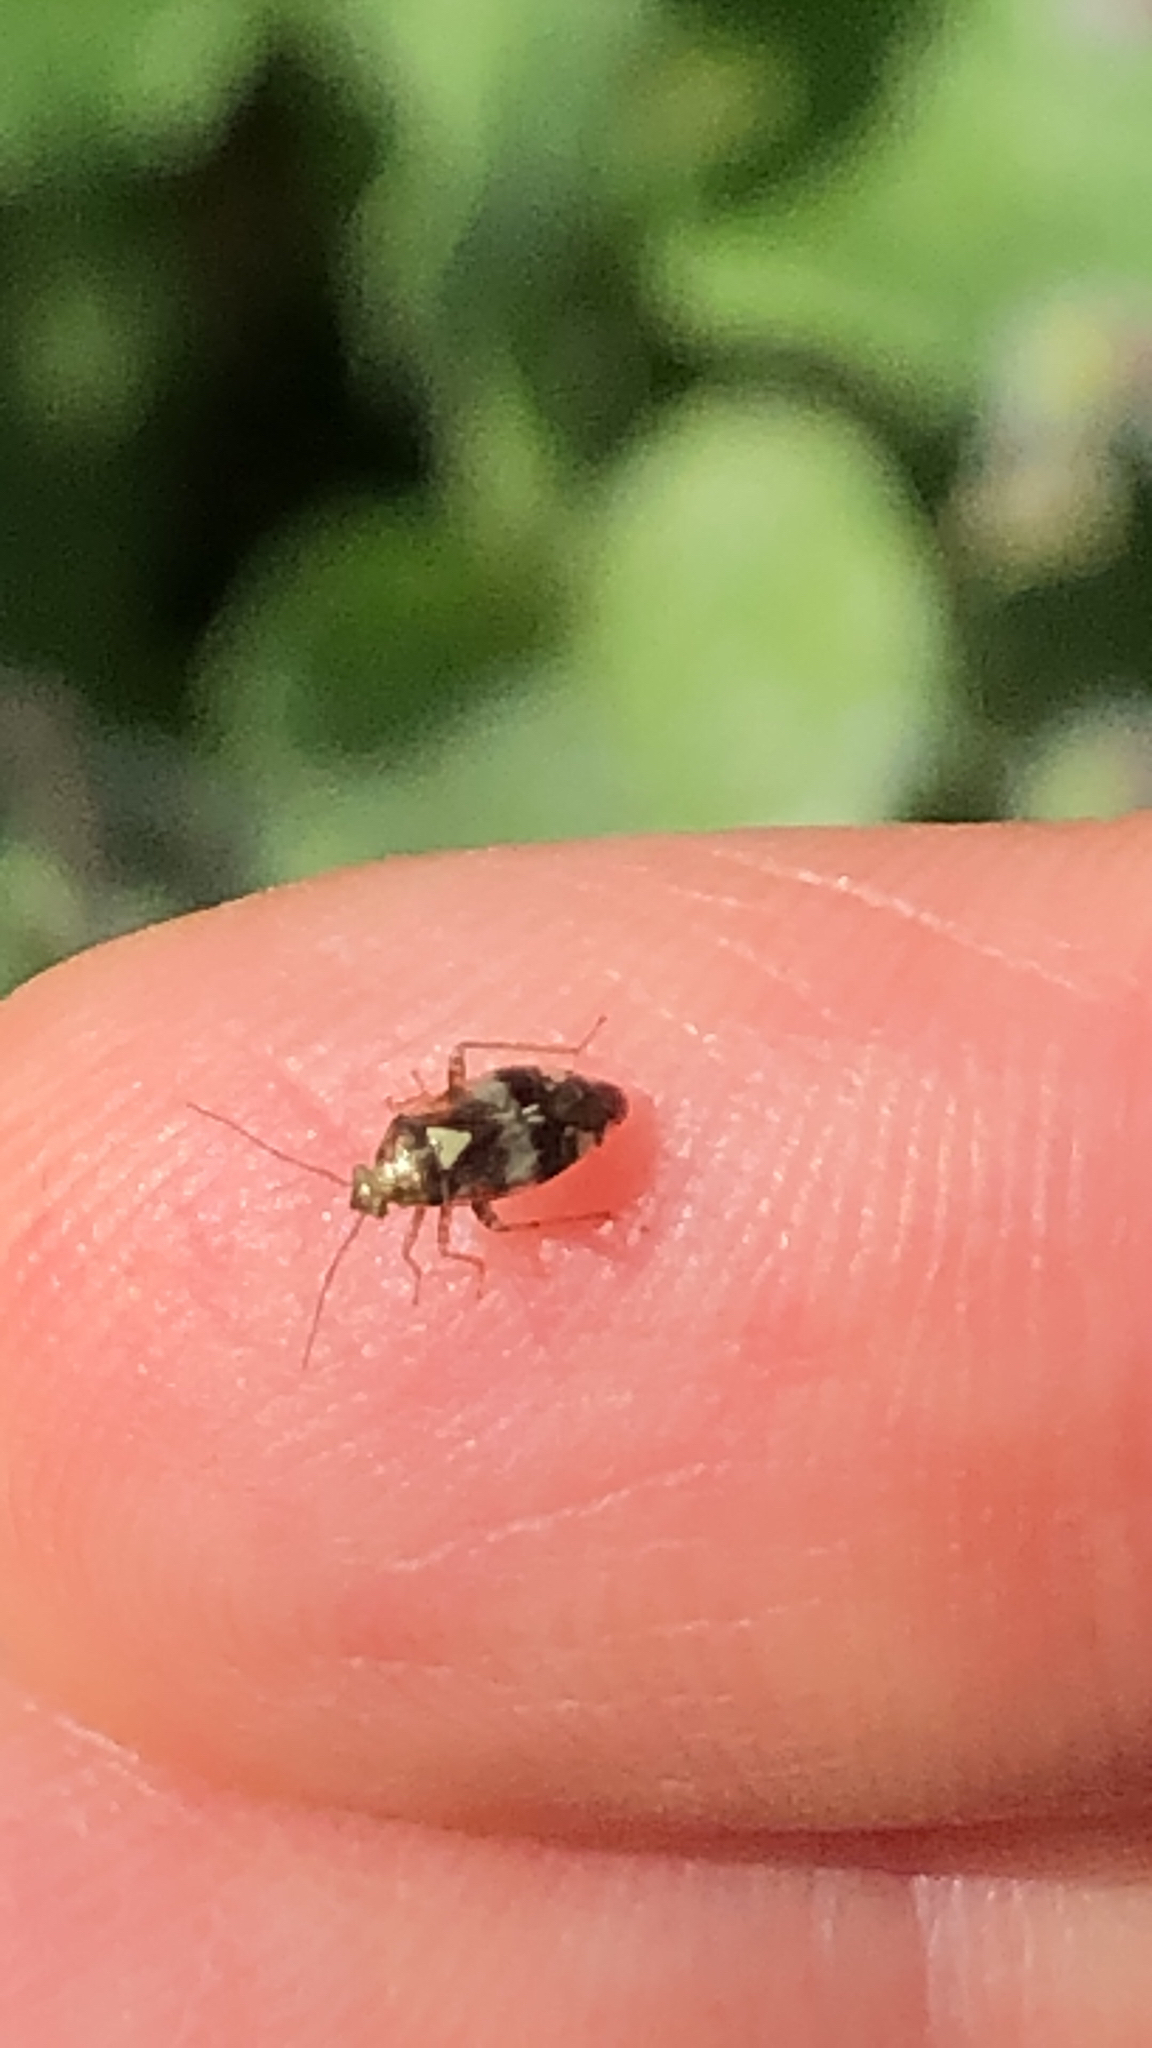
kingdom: Animalia
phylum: Arthropoda
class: Insecta
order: Hemiptera
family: Miridae
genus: Liocoris
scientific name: Liocoris tripustulatus
